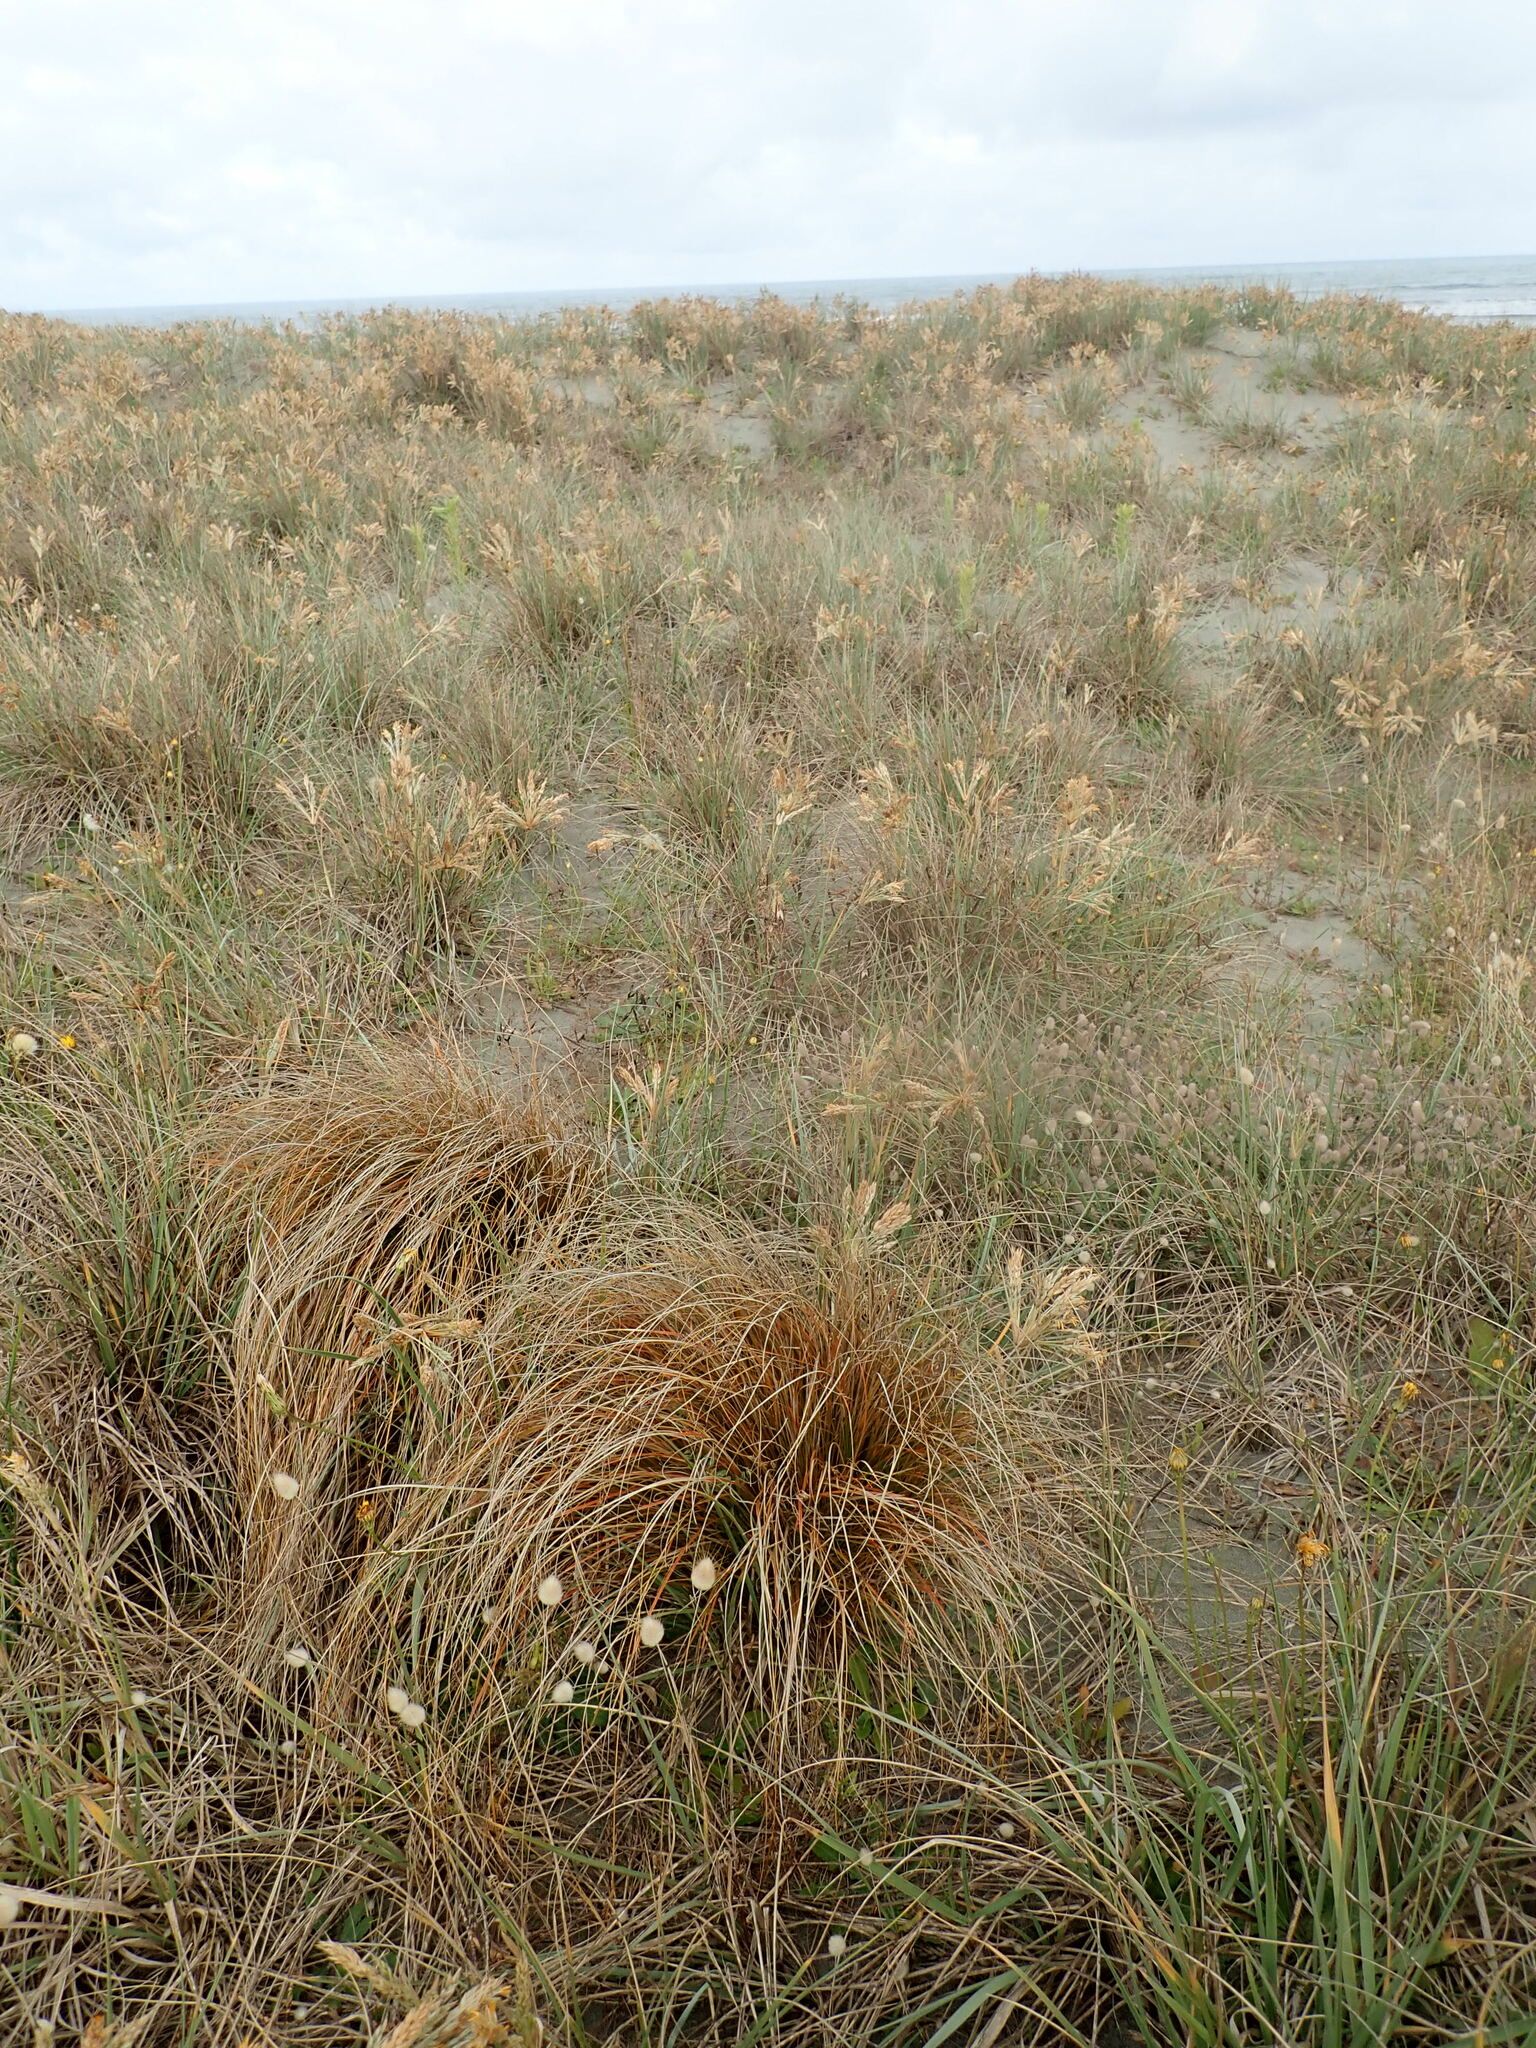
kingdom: Plantae
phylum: Tracheophyta
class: Liliopsida
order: Poales
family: Cyperaceae
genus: Carex
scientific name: Carex testacea
